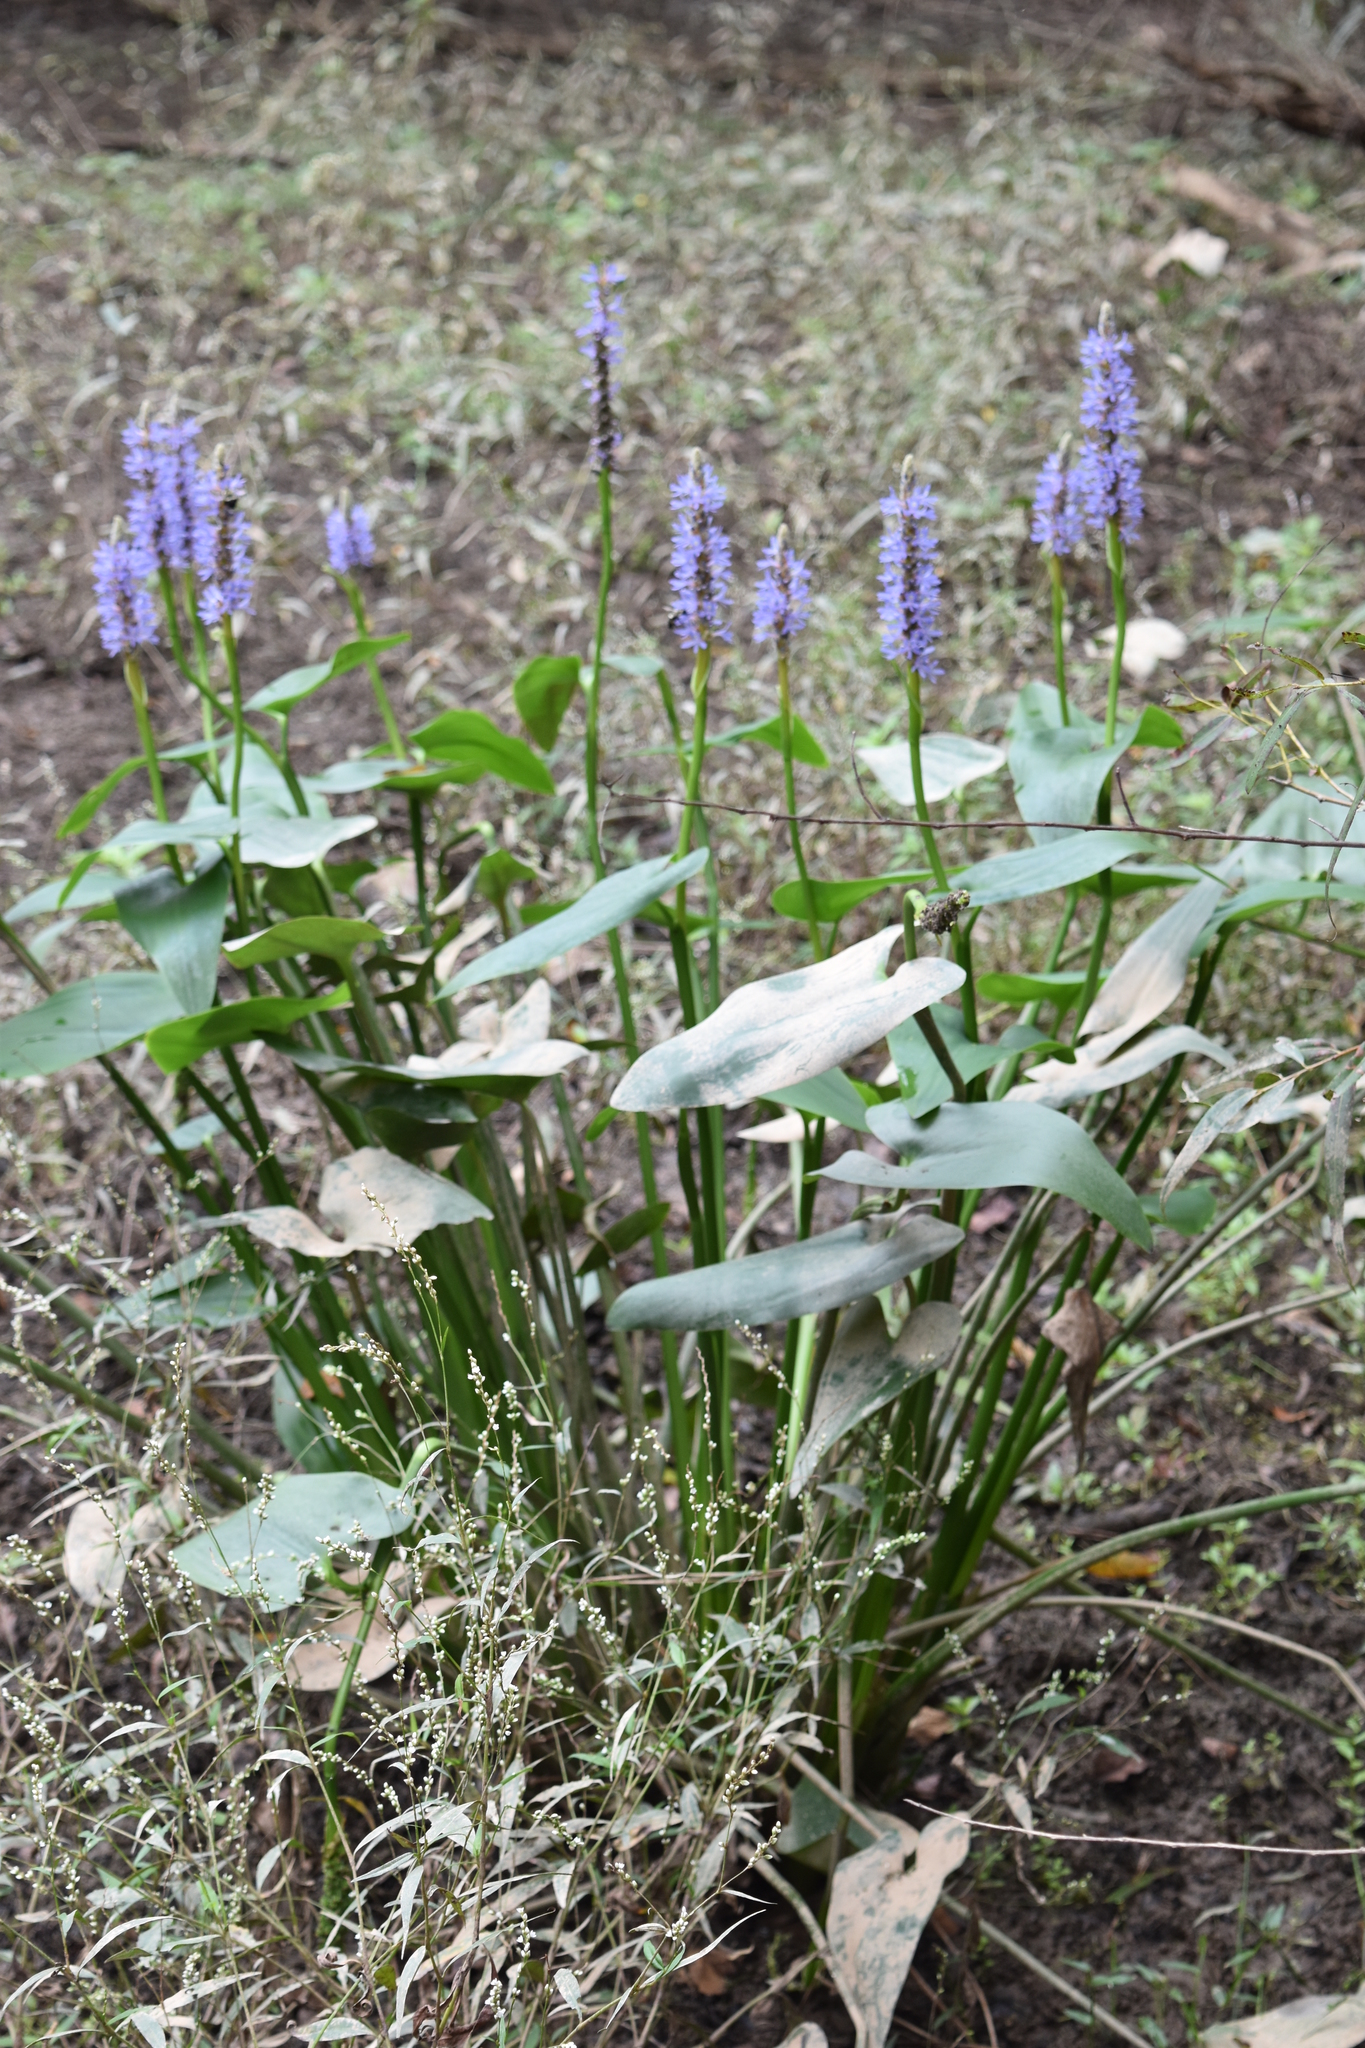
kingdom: Plantae
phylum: Tracheophyta
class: Liliopsida
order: Commelinales
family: Pontederiaceae
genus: Pontederia
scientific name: Pontederia cordata
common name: Pickerelweed
